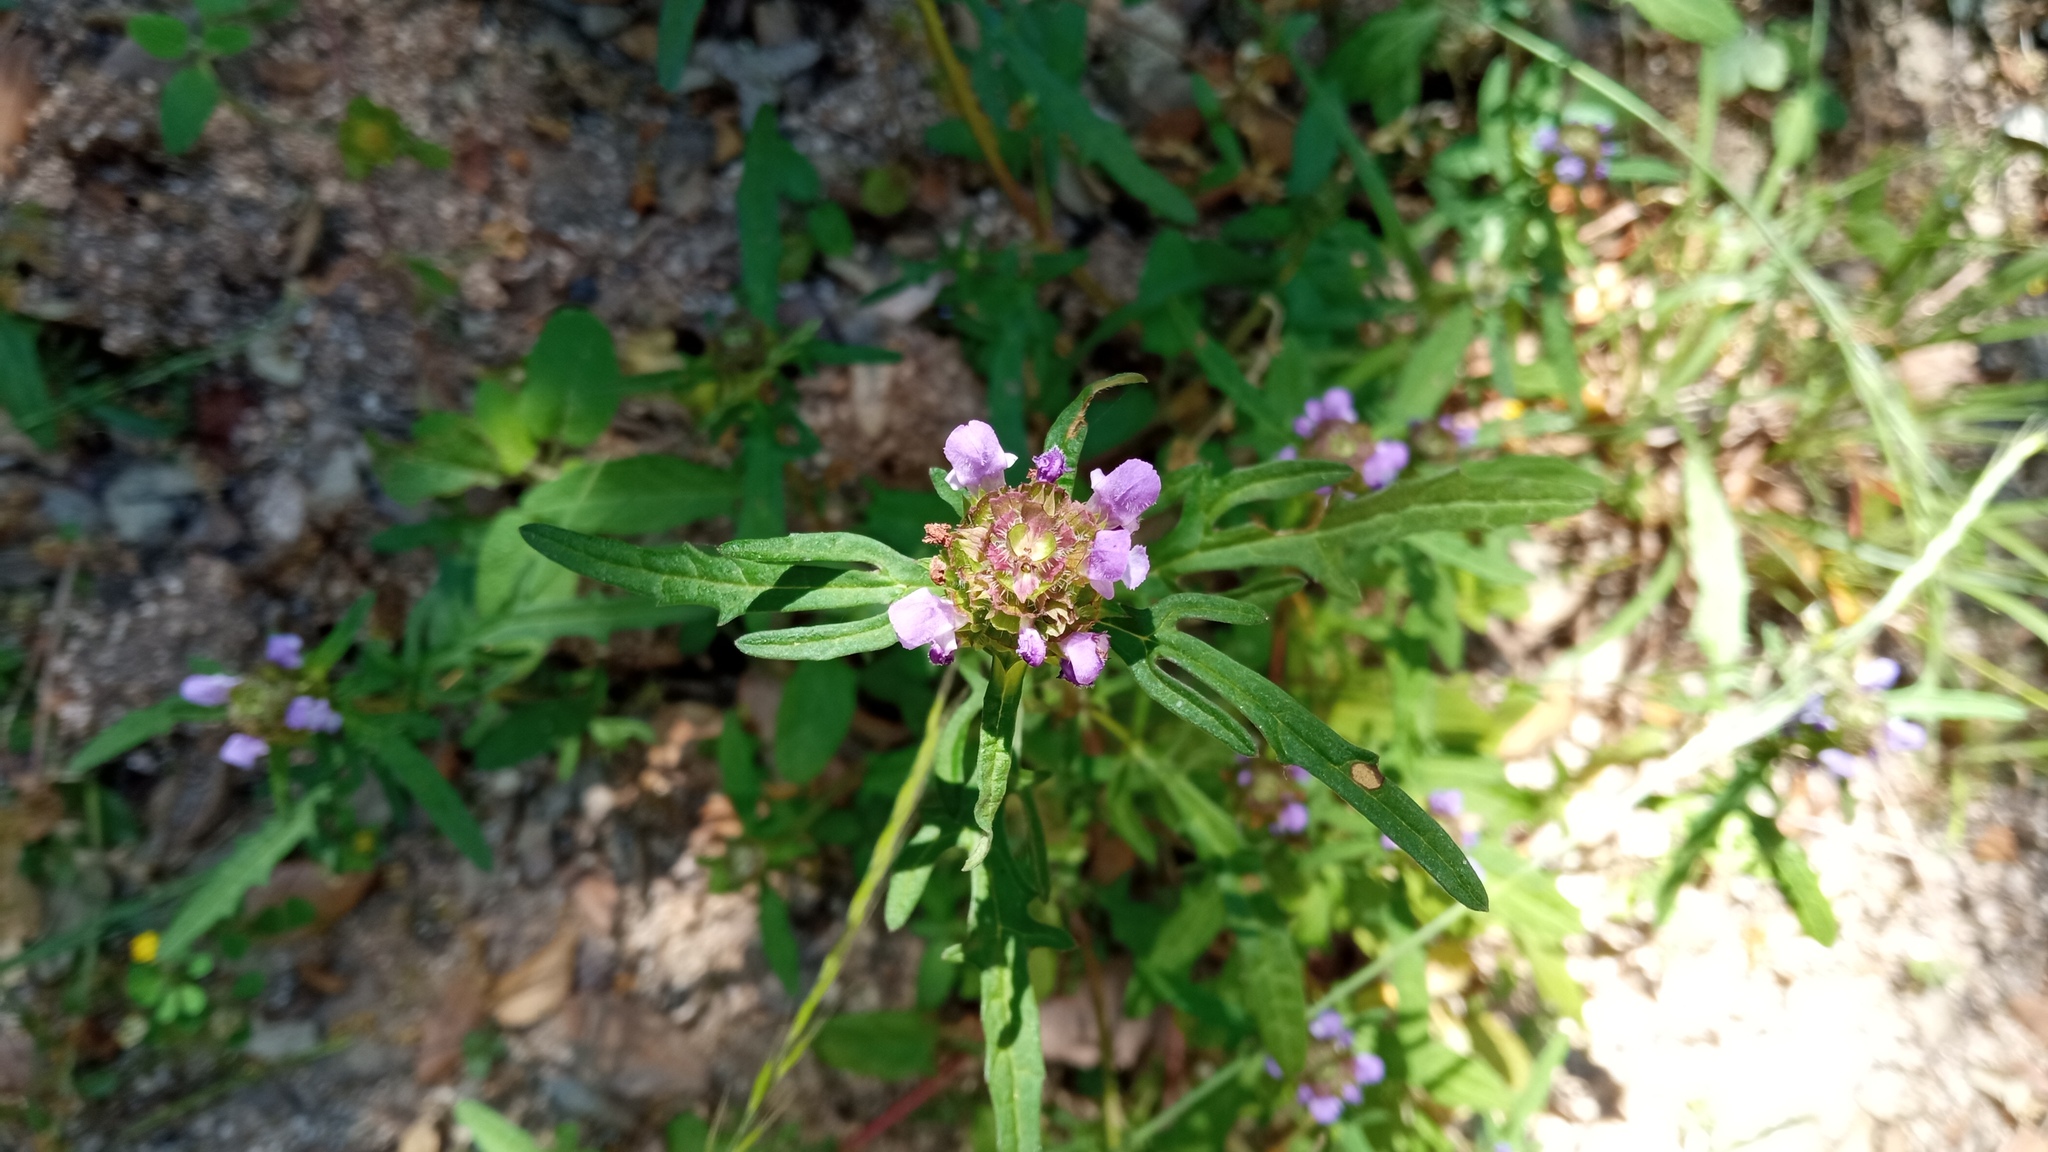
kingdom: Plantae
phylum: Tracheophyta
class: Magnoliopsida
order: Lamiales
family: Lamiaceae
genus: Prunella
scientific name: Prunella intermedia
